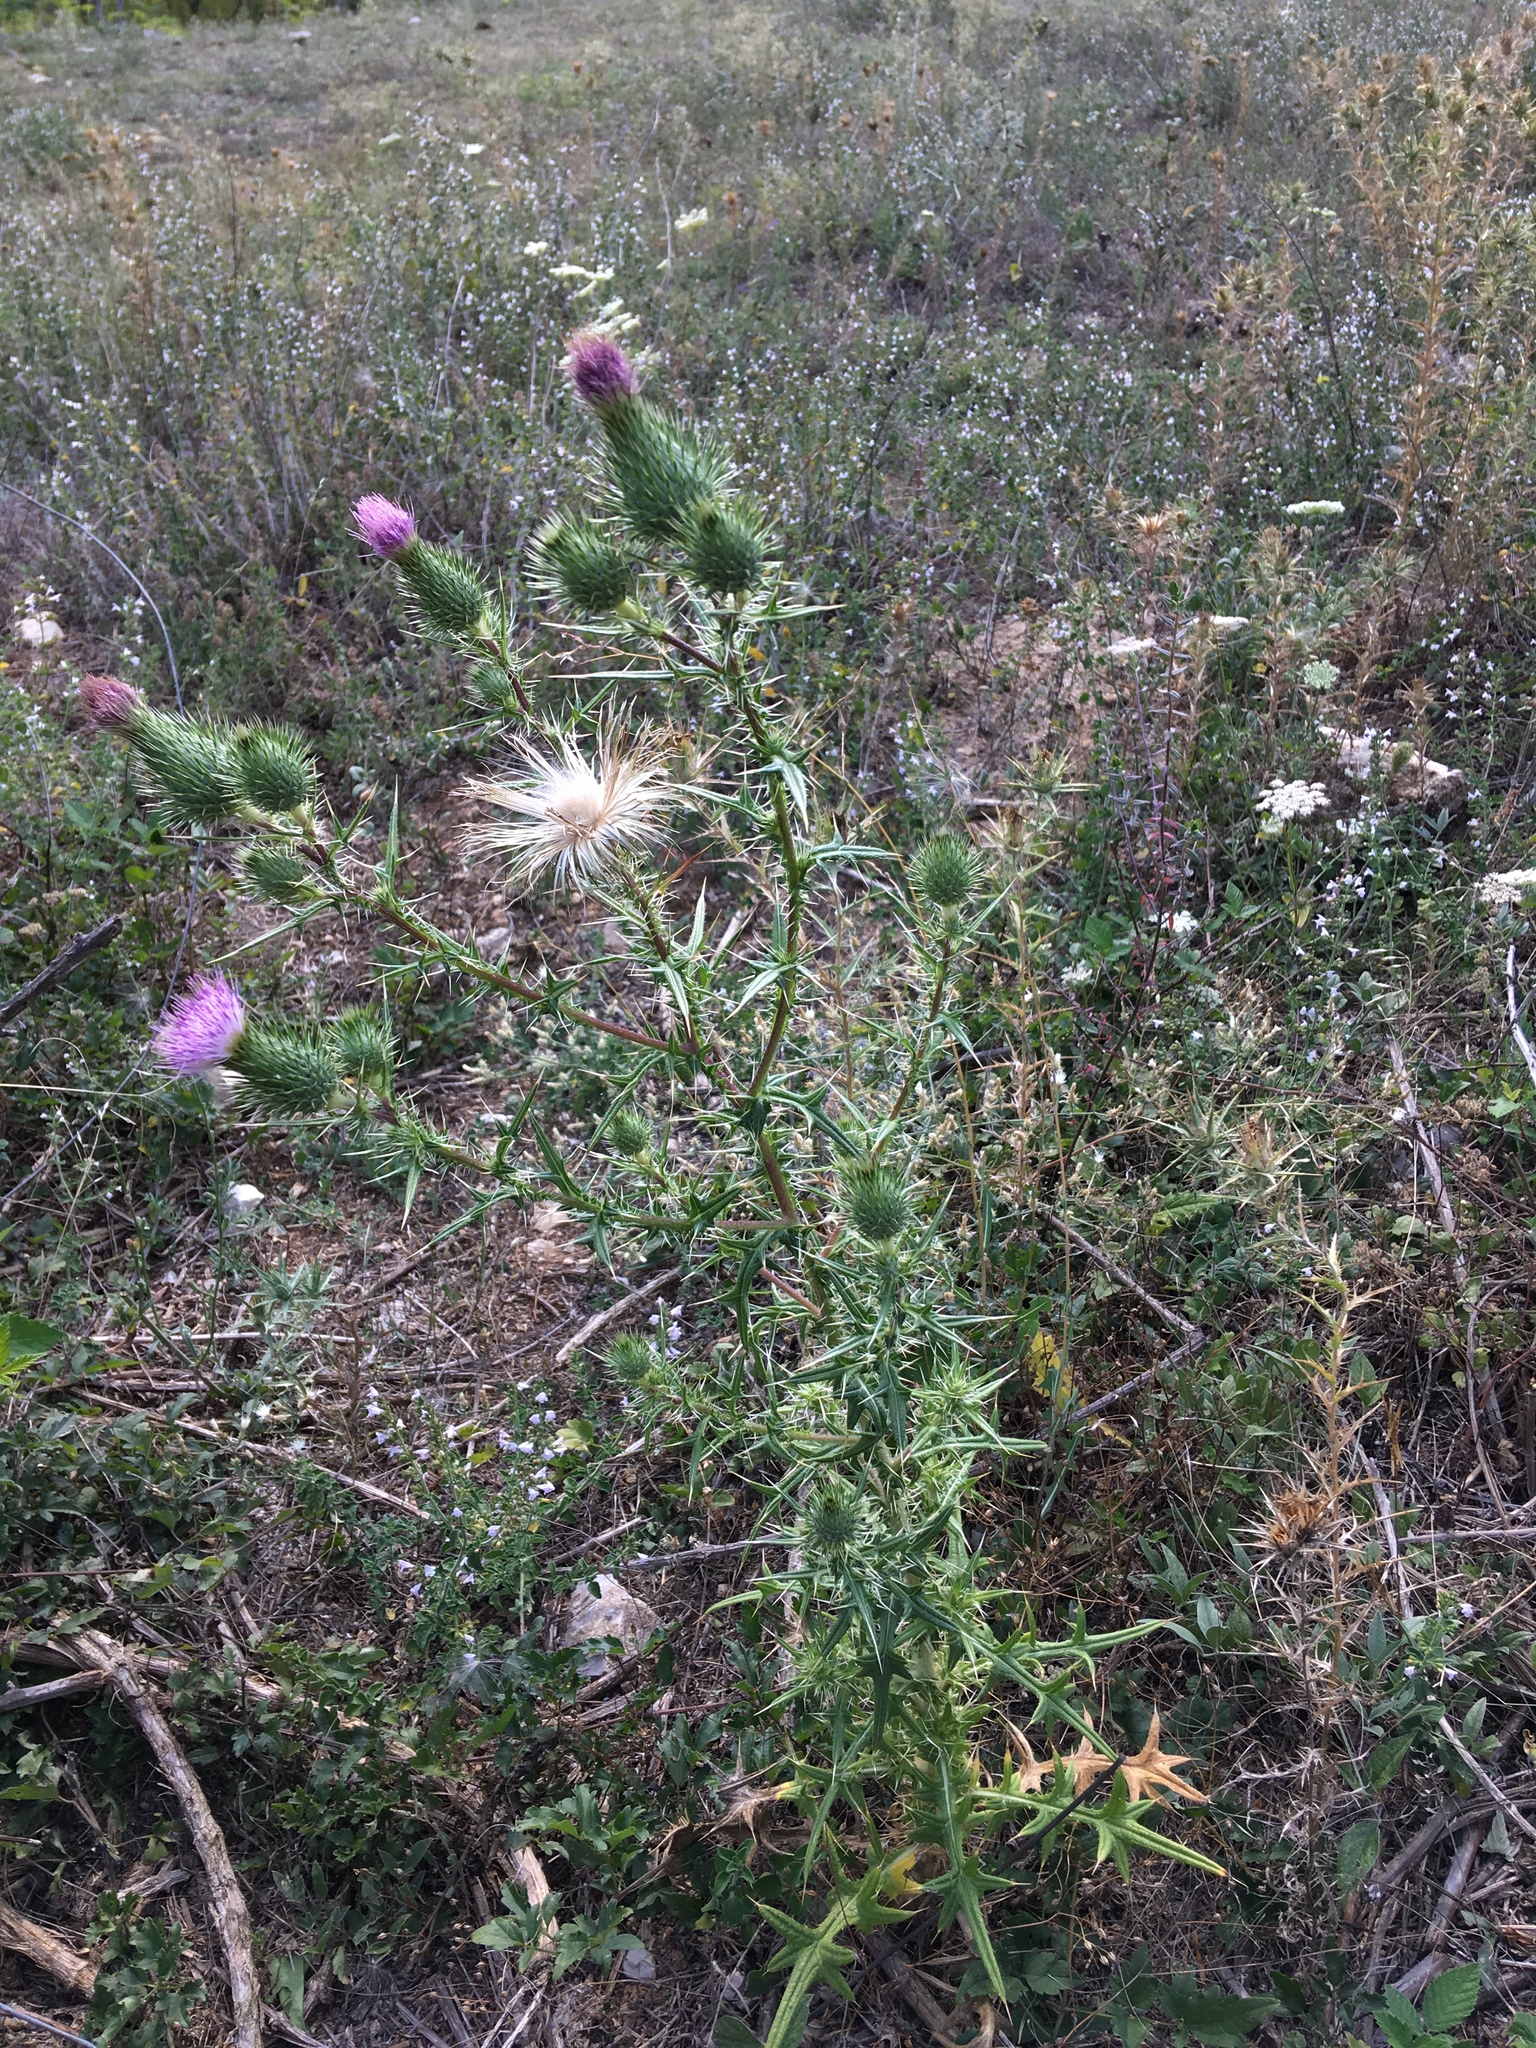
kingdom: Plantae
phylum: Tracheophyta
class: Magnoliopsida
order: Asterales
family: Asteraceae
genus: Cirsium
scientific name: Cirsium vulgare
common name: Bull thistle
